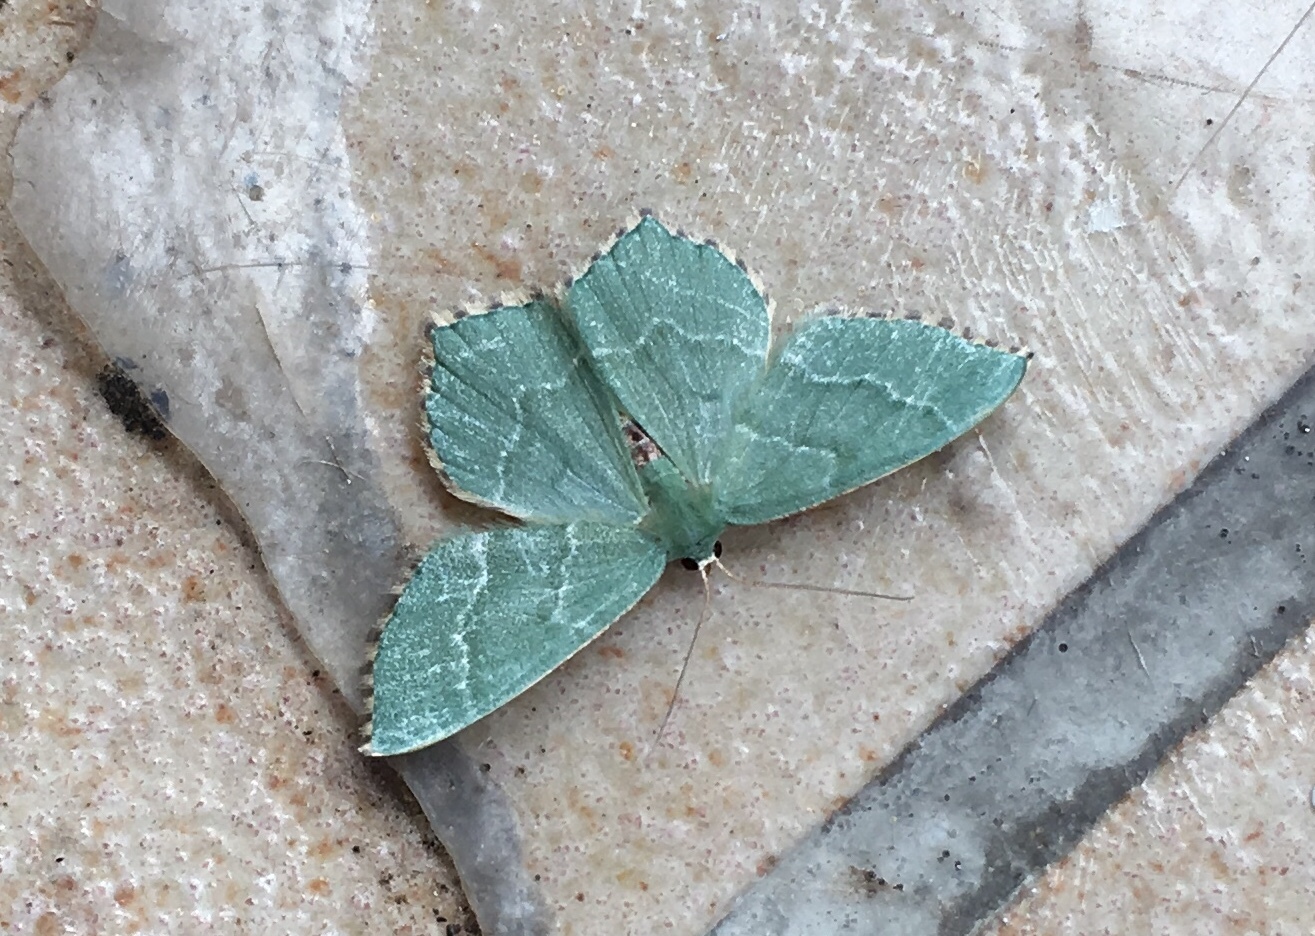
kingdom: Animalia
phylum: Arthropoda
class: Insecta
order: Lepidoptera
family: Geometridae
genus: Hemithea
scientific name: Hemithea aestivaria
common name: Common emerald
